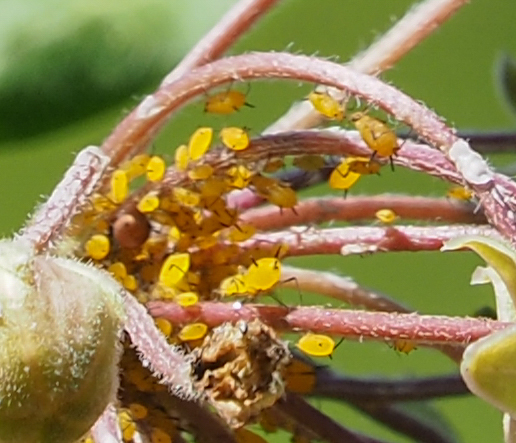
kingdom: Animalia
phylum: Arthropoda
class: Insecta
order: Hemiptera
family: Aphididae
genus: Aphis
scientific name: Aphis nerii
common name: Oleander aphid
